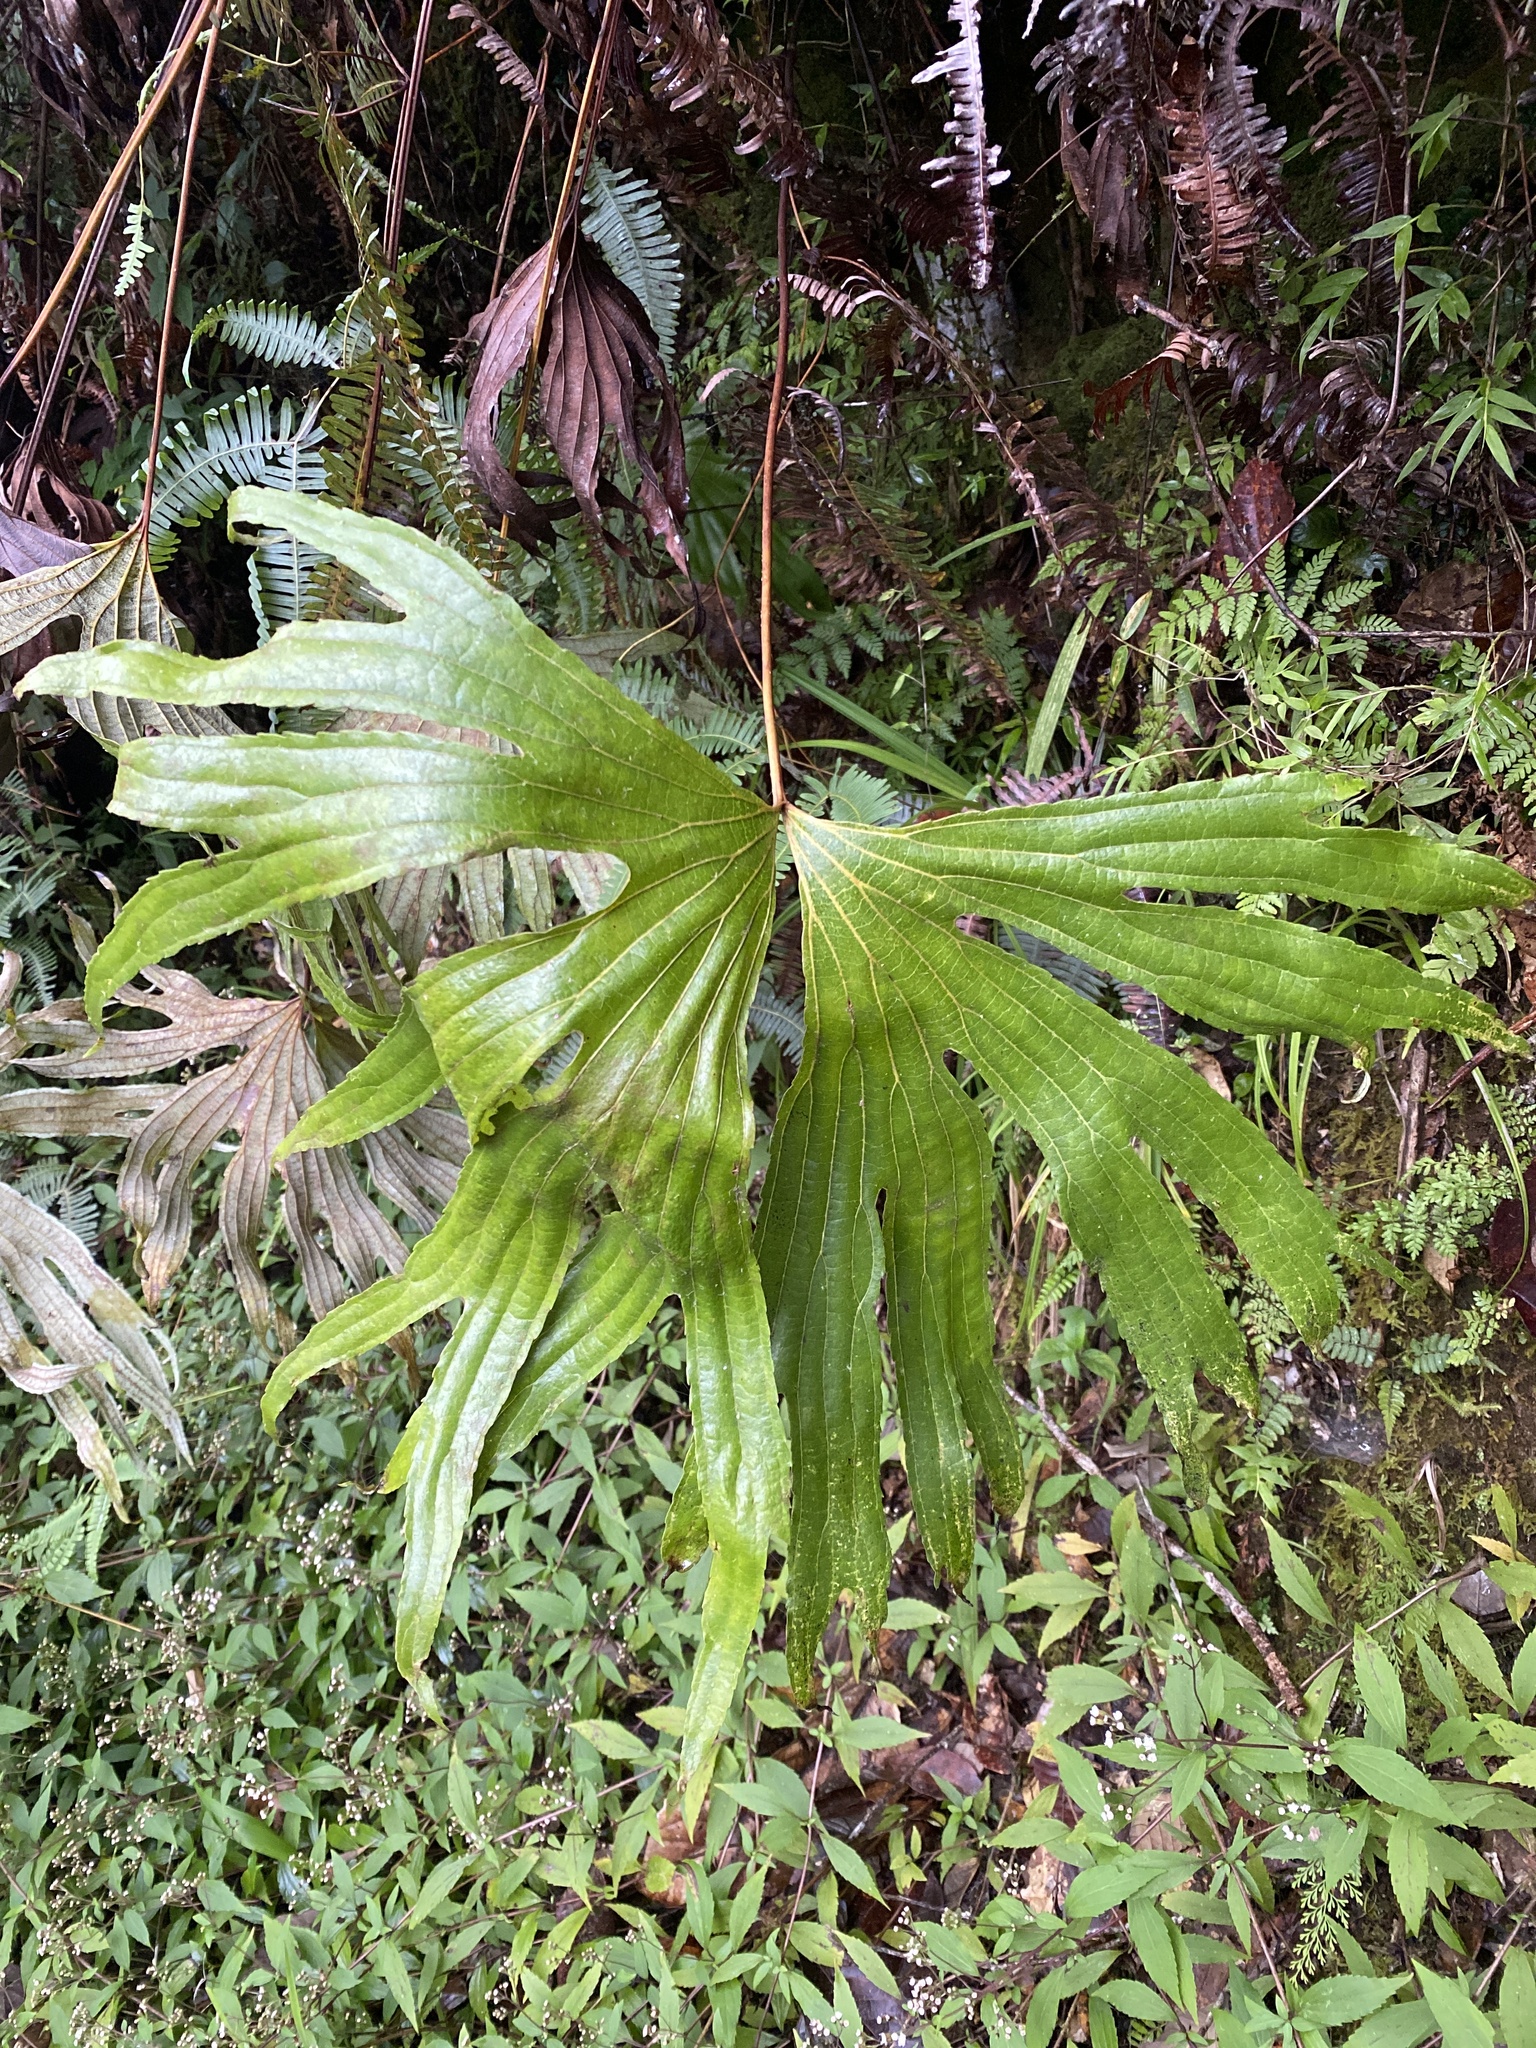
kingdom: Plantae
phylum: Tracheophyta
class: Polypodiopsida
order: Gleicheniales
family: Dipteridaceae
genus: Dipteris
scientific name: Dipteris conjugata
